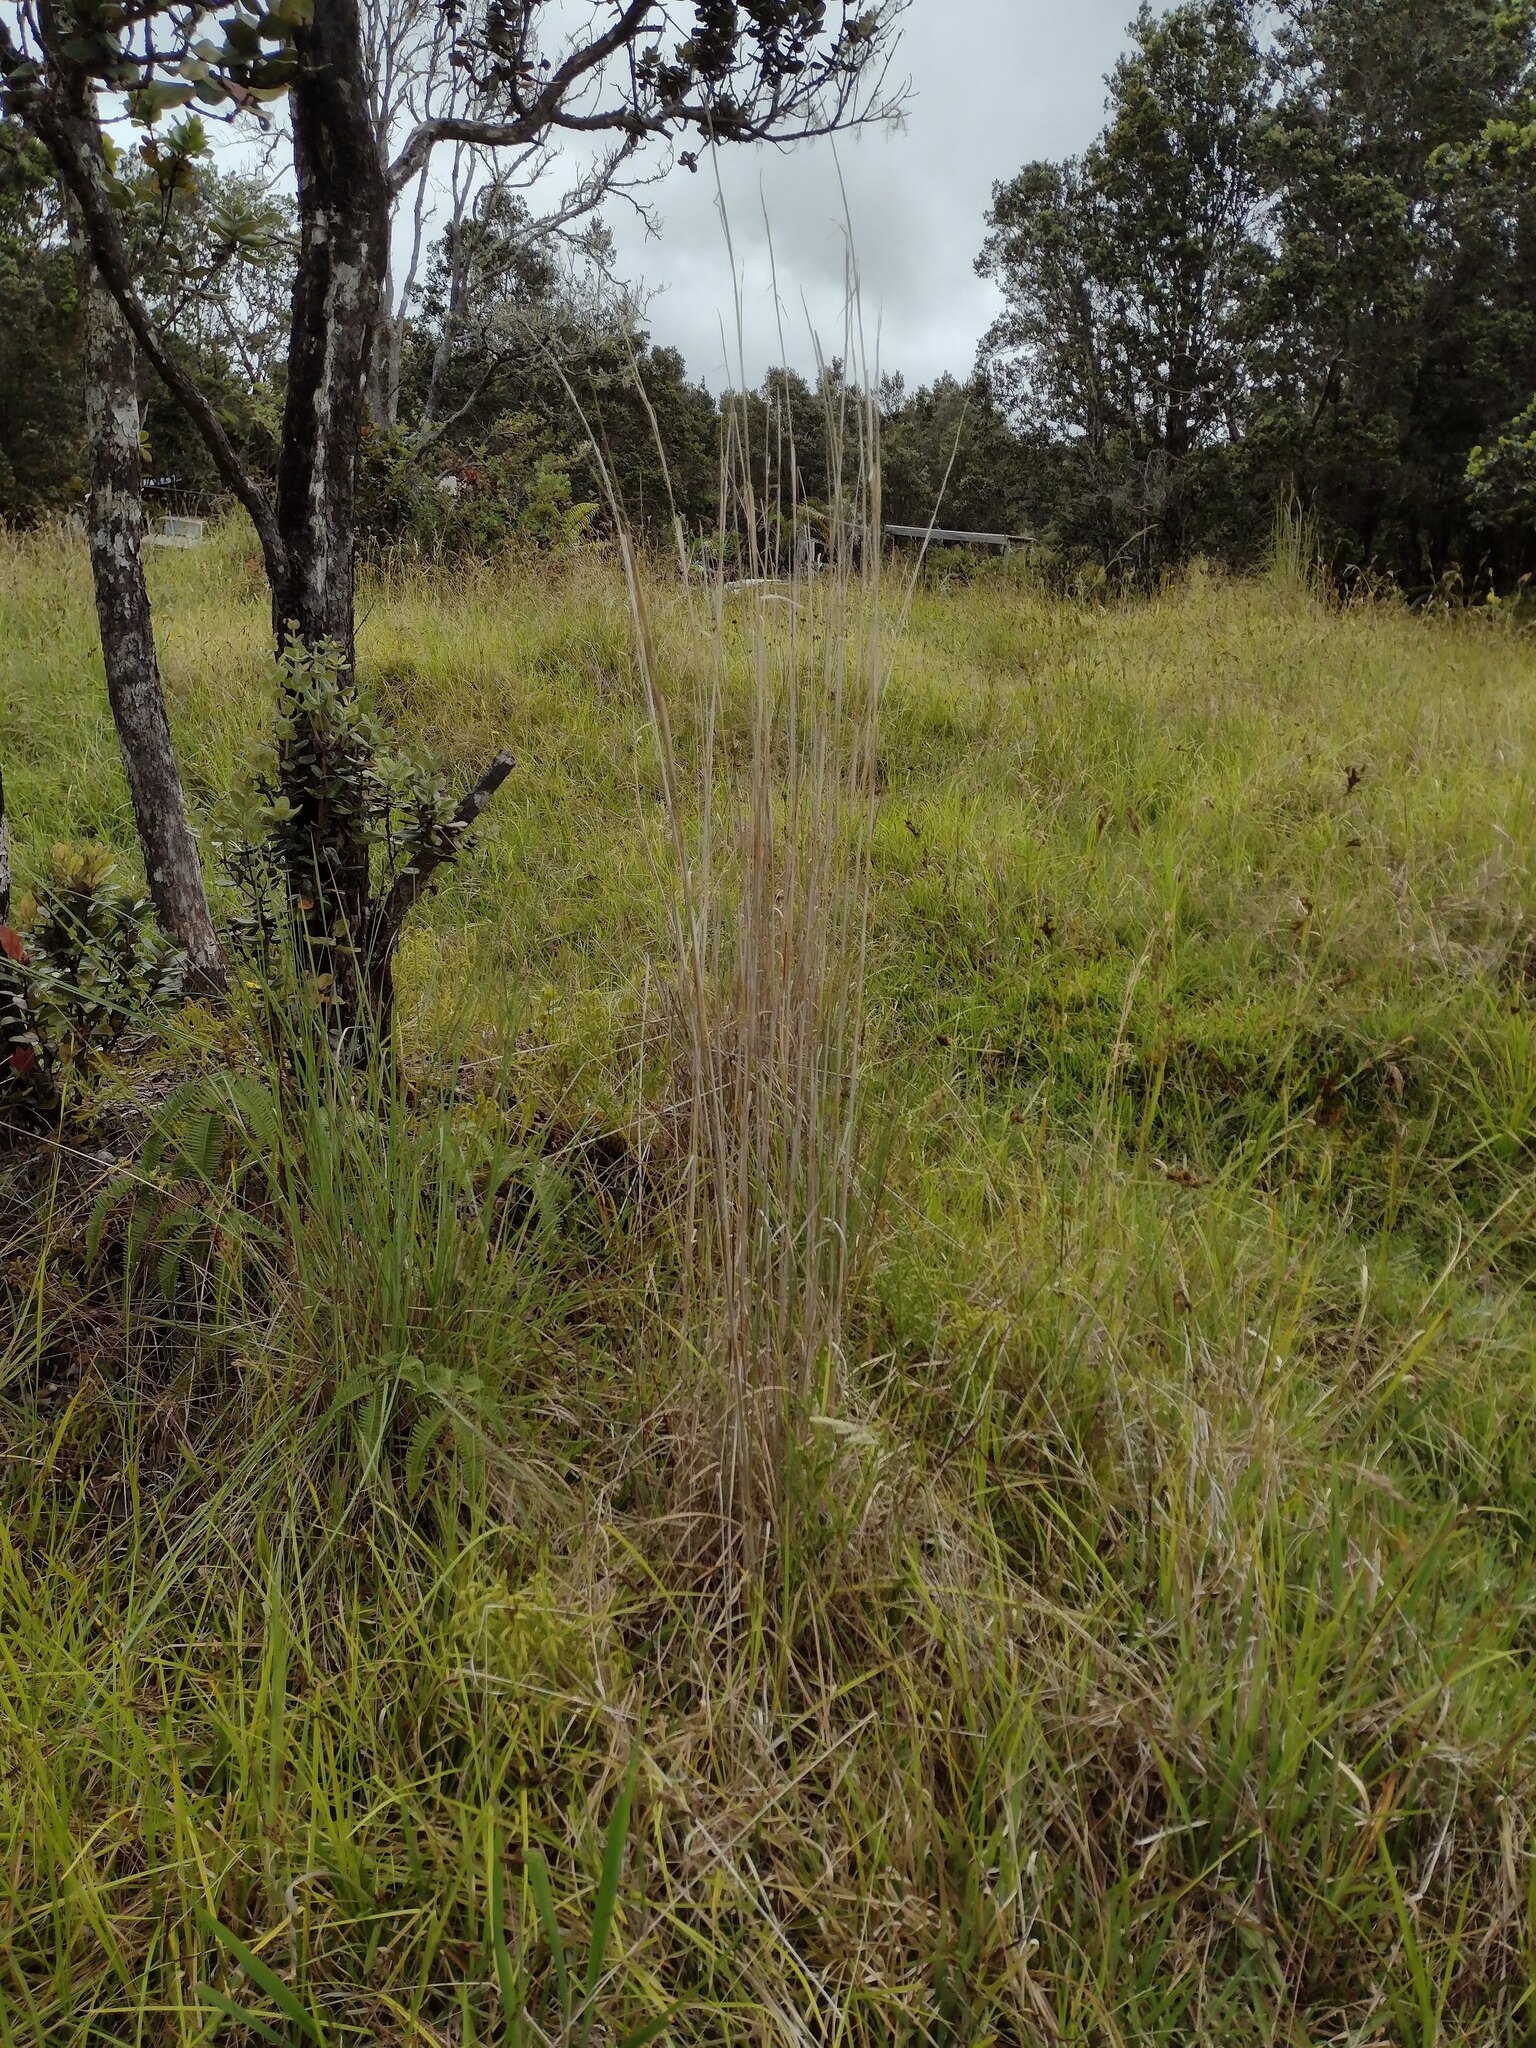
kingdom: Plantae
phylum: Tracheophyta
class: Liliopsida
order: Poales
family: Poaceae
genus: Andropogon
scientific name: Andropogon virginicus
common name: Broomsedge bluestem
